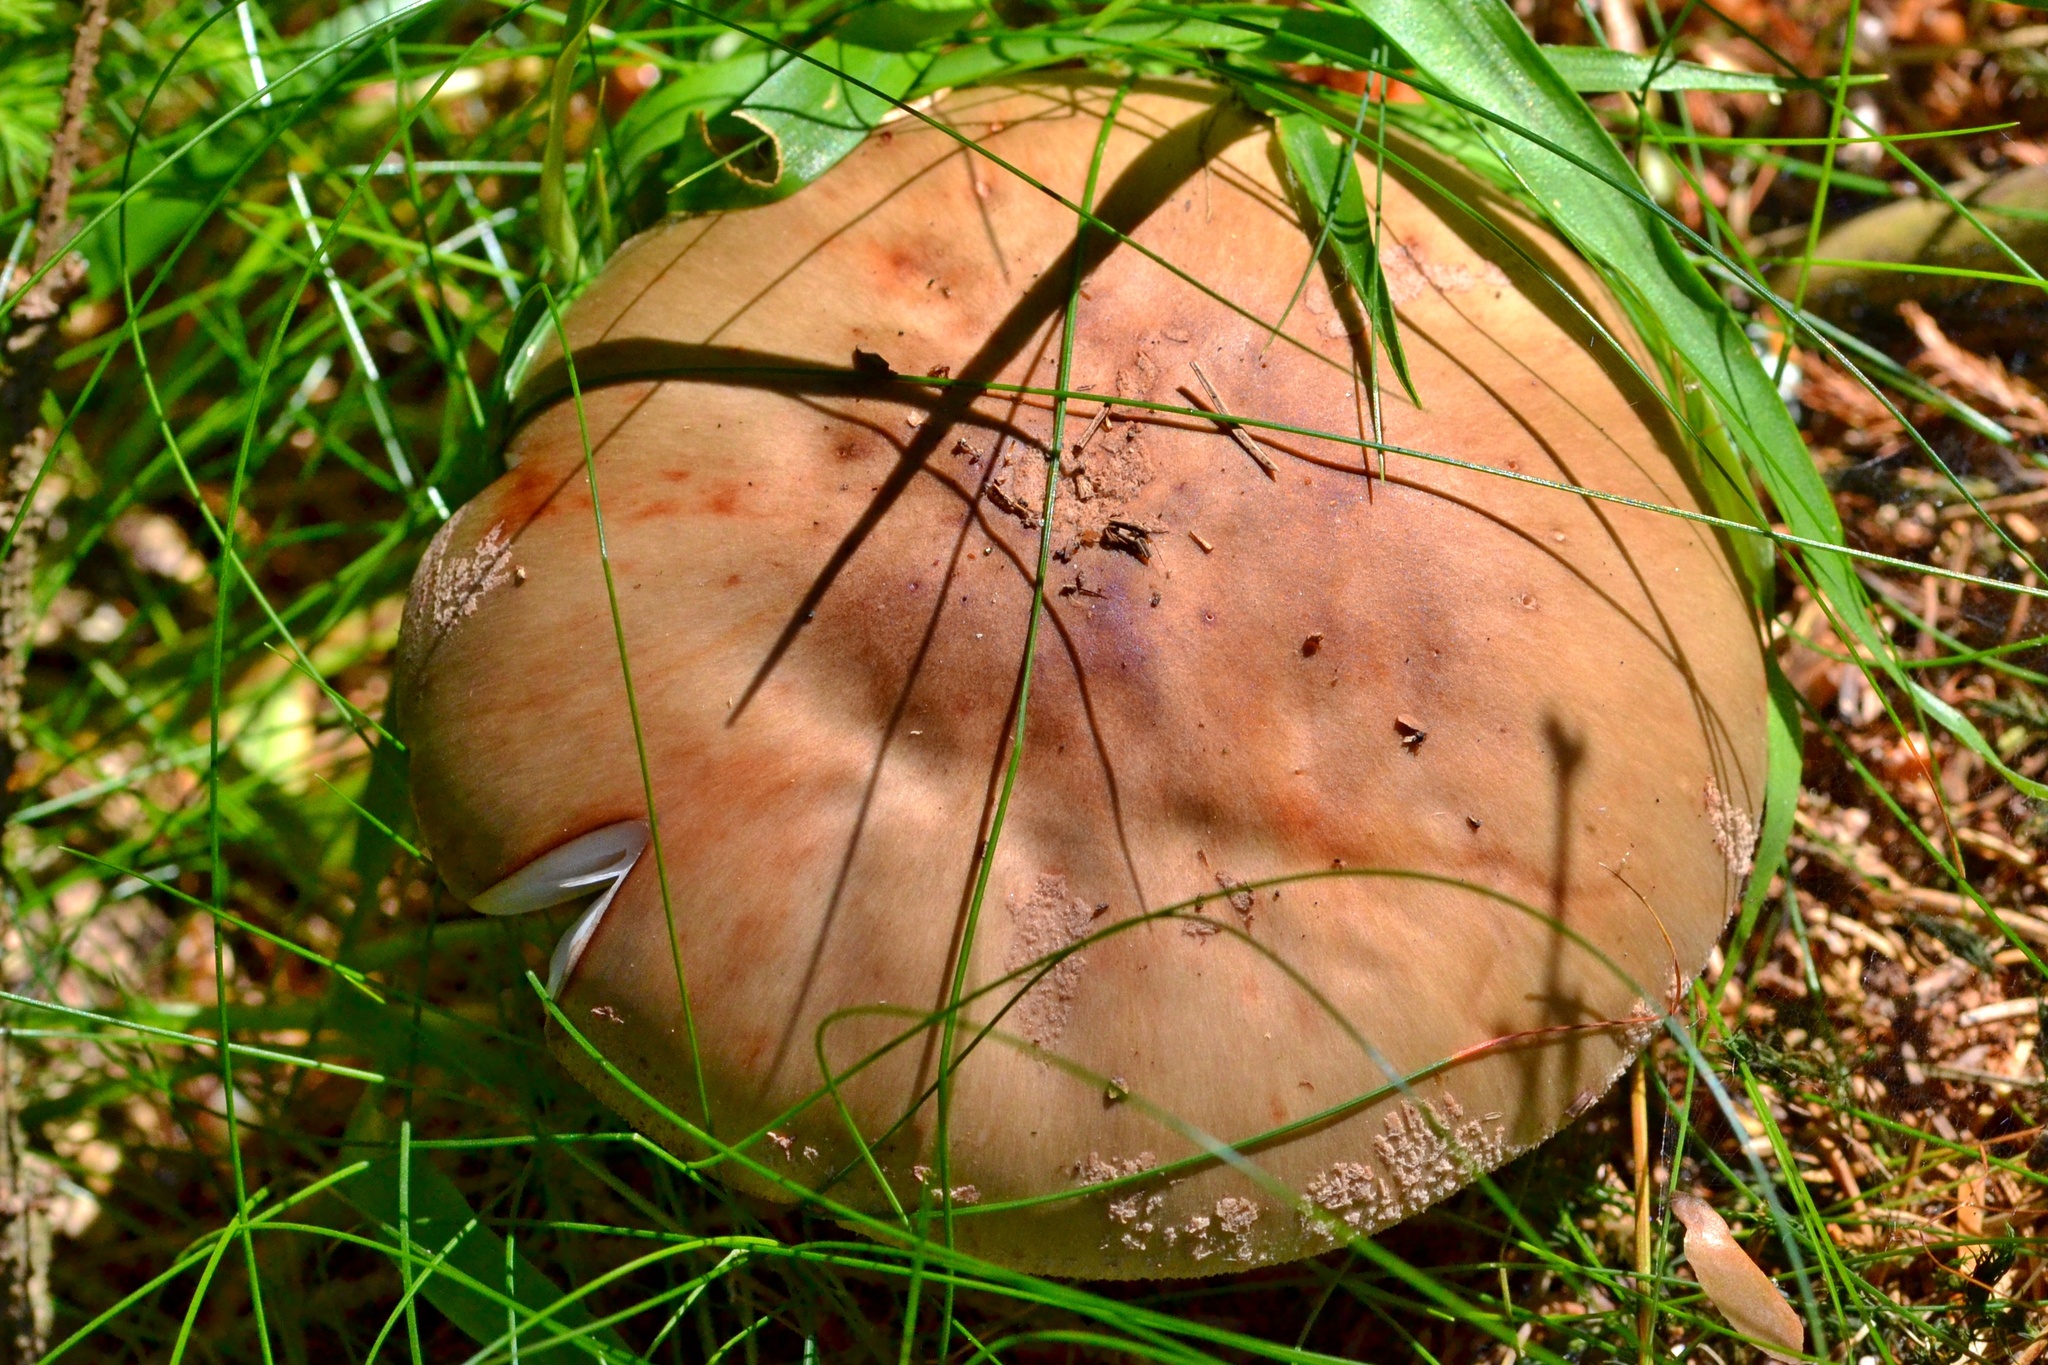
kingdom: Fungi
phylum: Basidiomycota
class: Agaricomycetes
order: Agaricales
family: Amanitaceae
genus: Amanita
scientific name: Amanita rubescens
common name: Blusher
